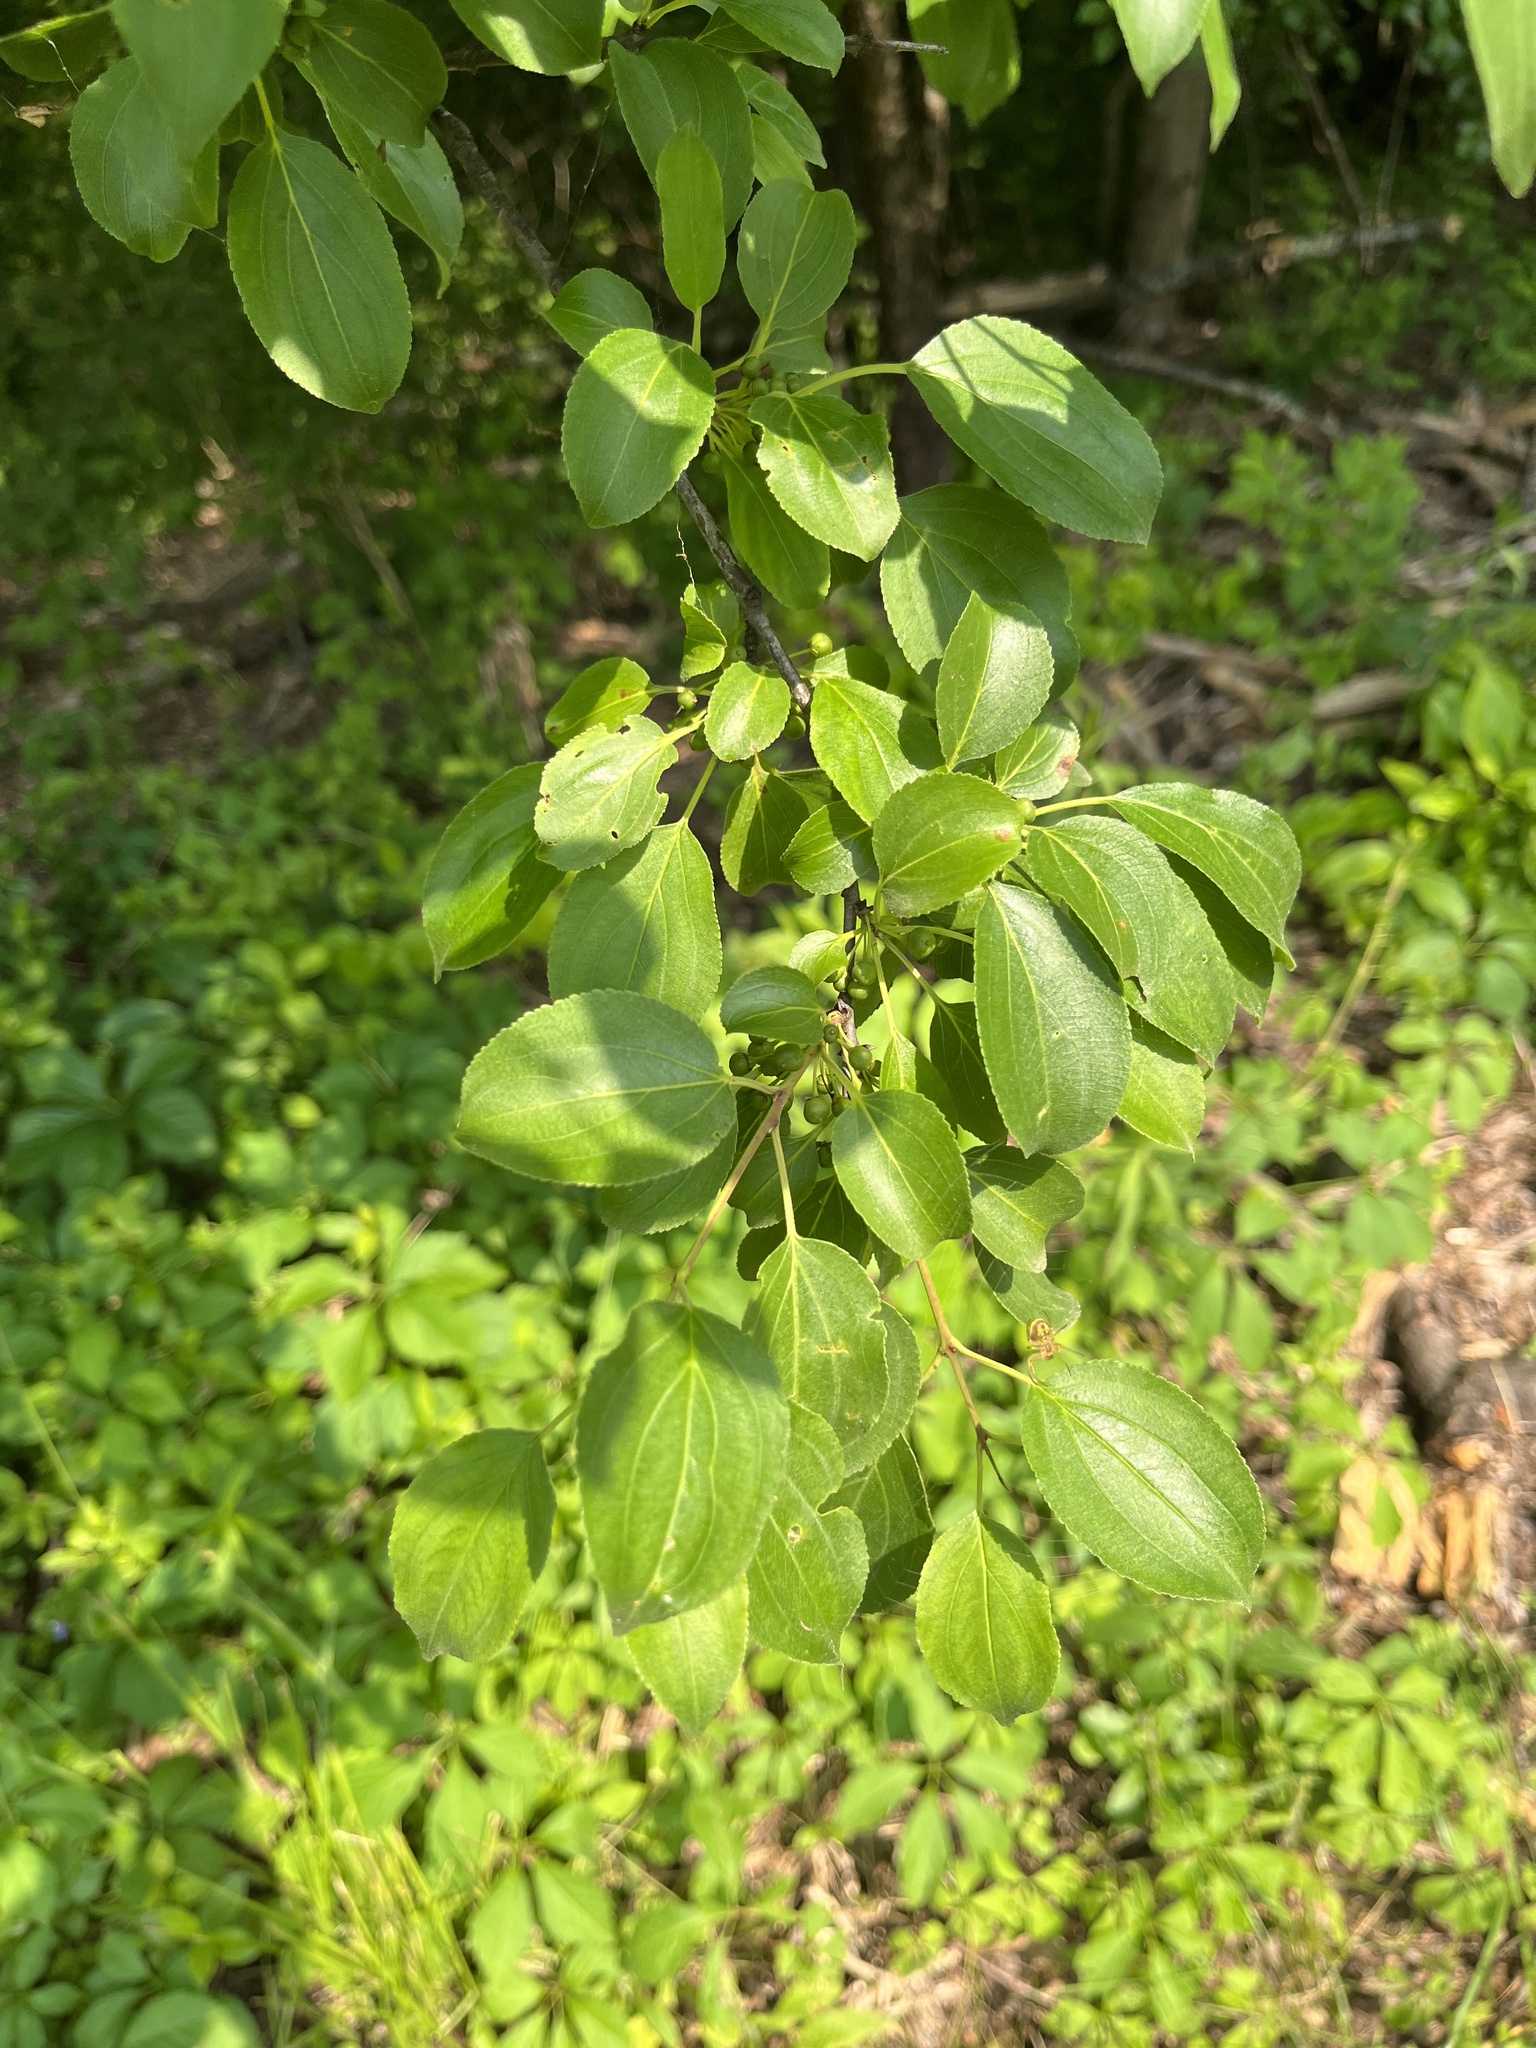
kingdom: Plantae
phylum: Tracheophyta
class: Magnoliopsida
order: Rosales
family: Rhamnaceae
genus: Rhamnus
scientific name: Rhamnus cathartica
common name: Common buckthorn
